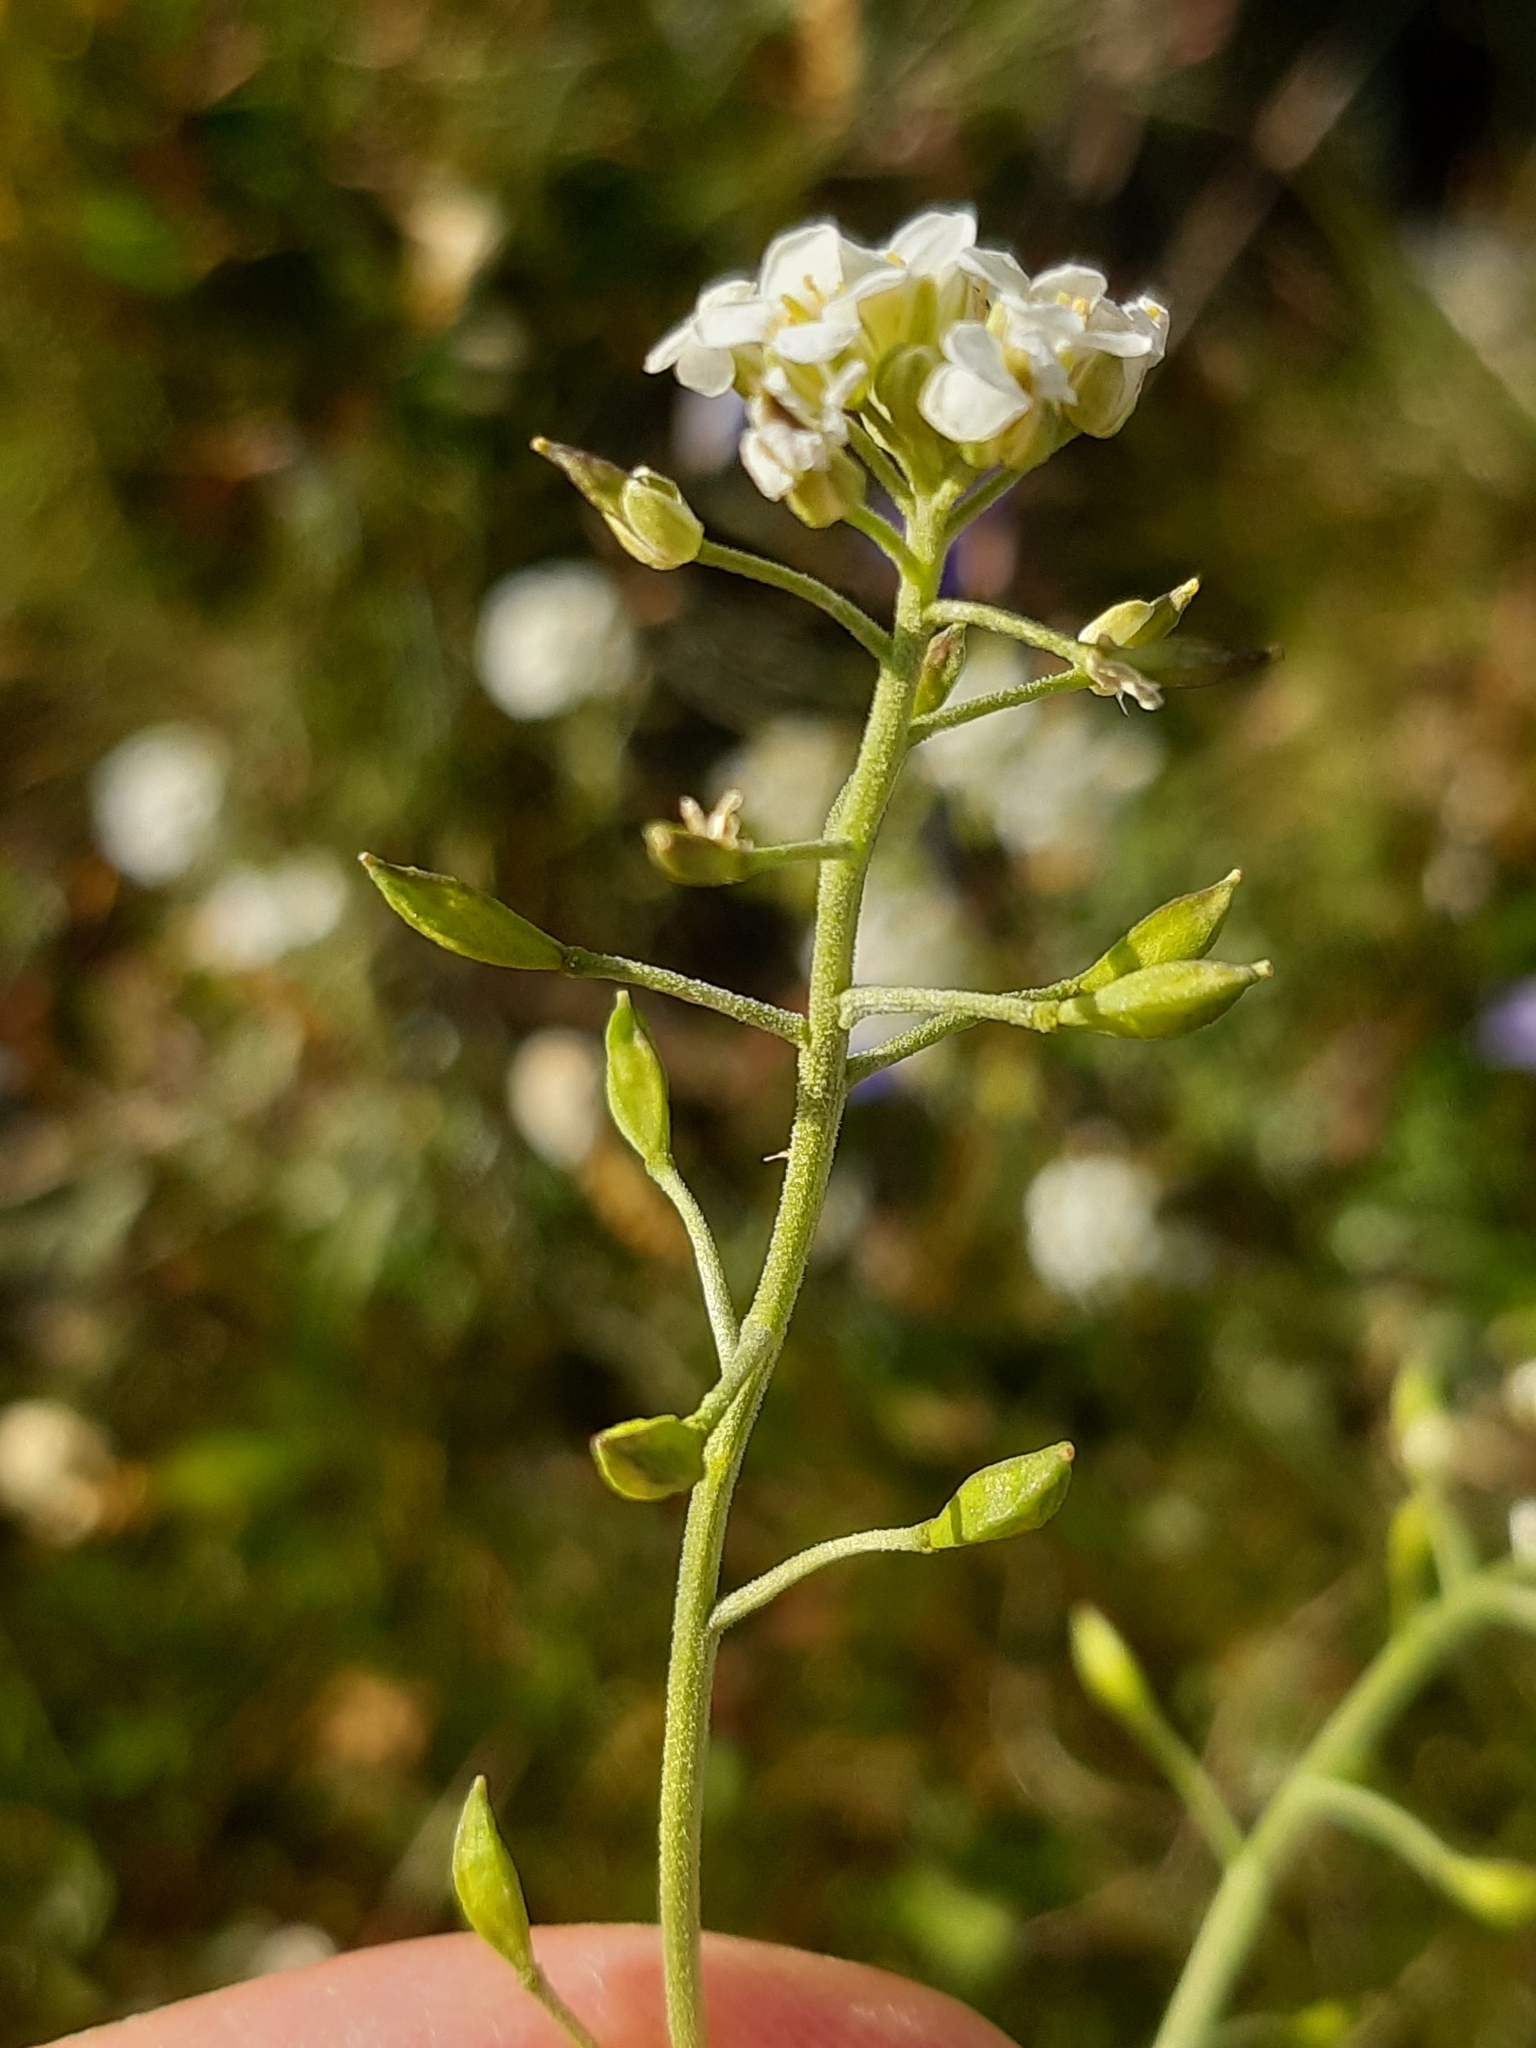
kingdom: Plantae
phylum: Tracheophyta
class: Magnoliopsida
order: Brassicales
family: Brassicaceae
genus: Hornungia
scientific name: Hornungia alpina
